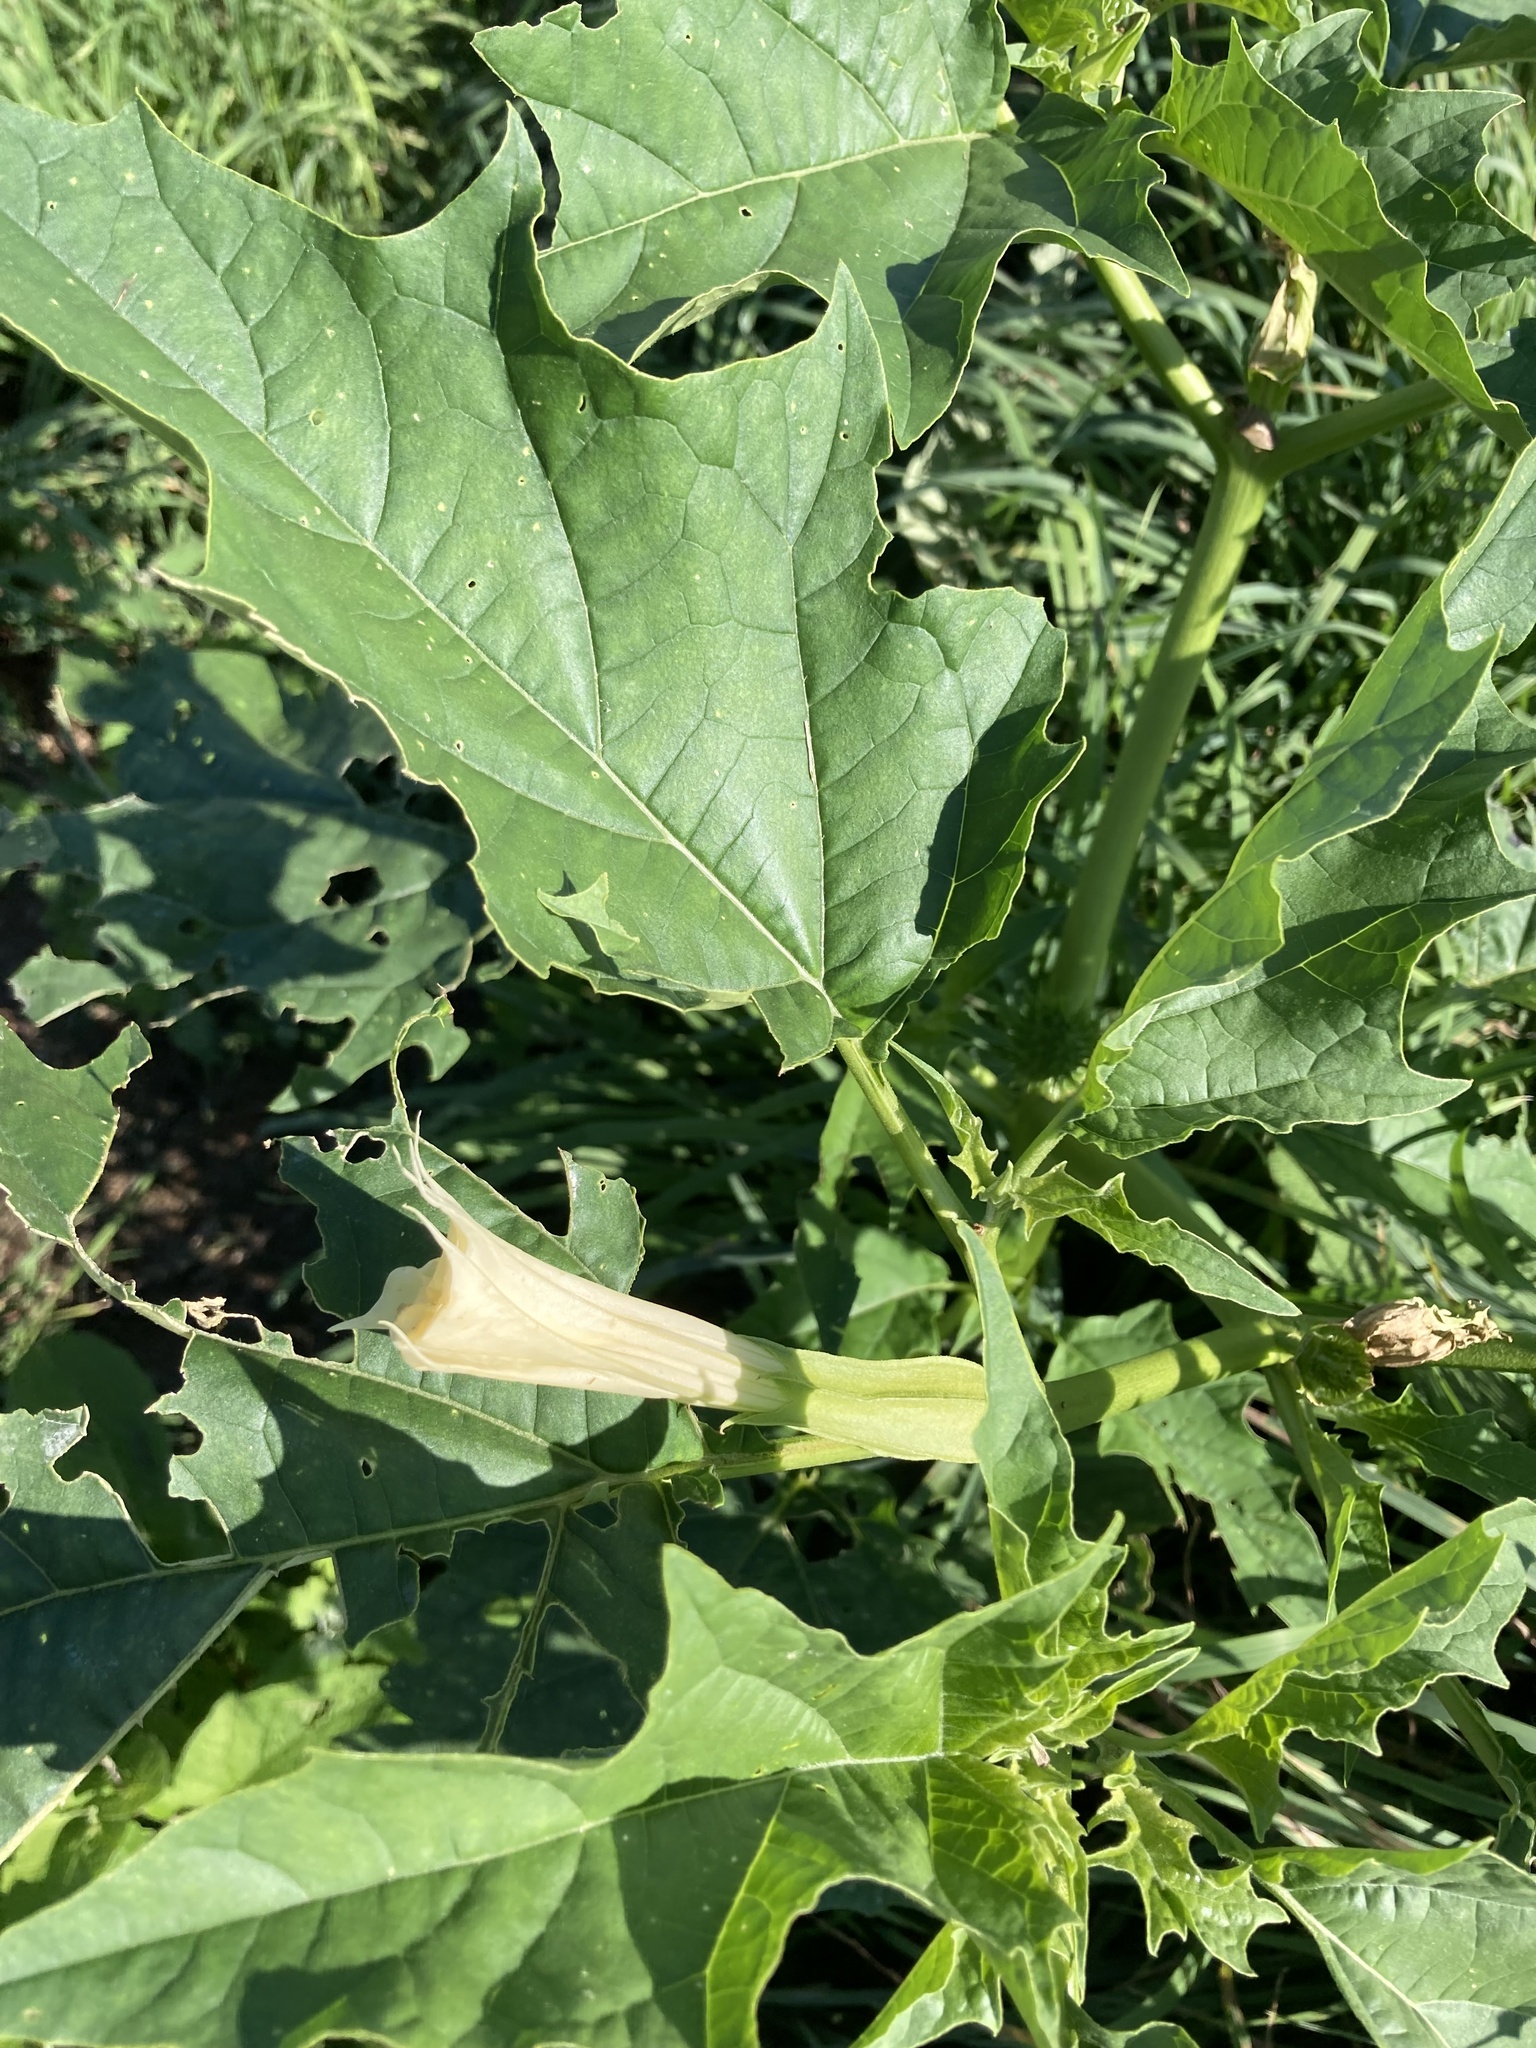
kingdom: Plantae
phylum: Tracheophyta
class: Magnoliopsida
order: Solanales
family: Solanaceae
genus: Datura
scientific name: Datura stramonium
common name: Thorn-apple
